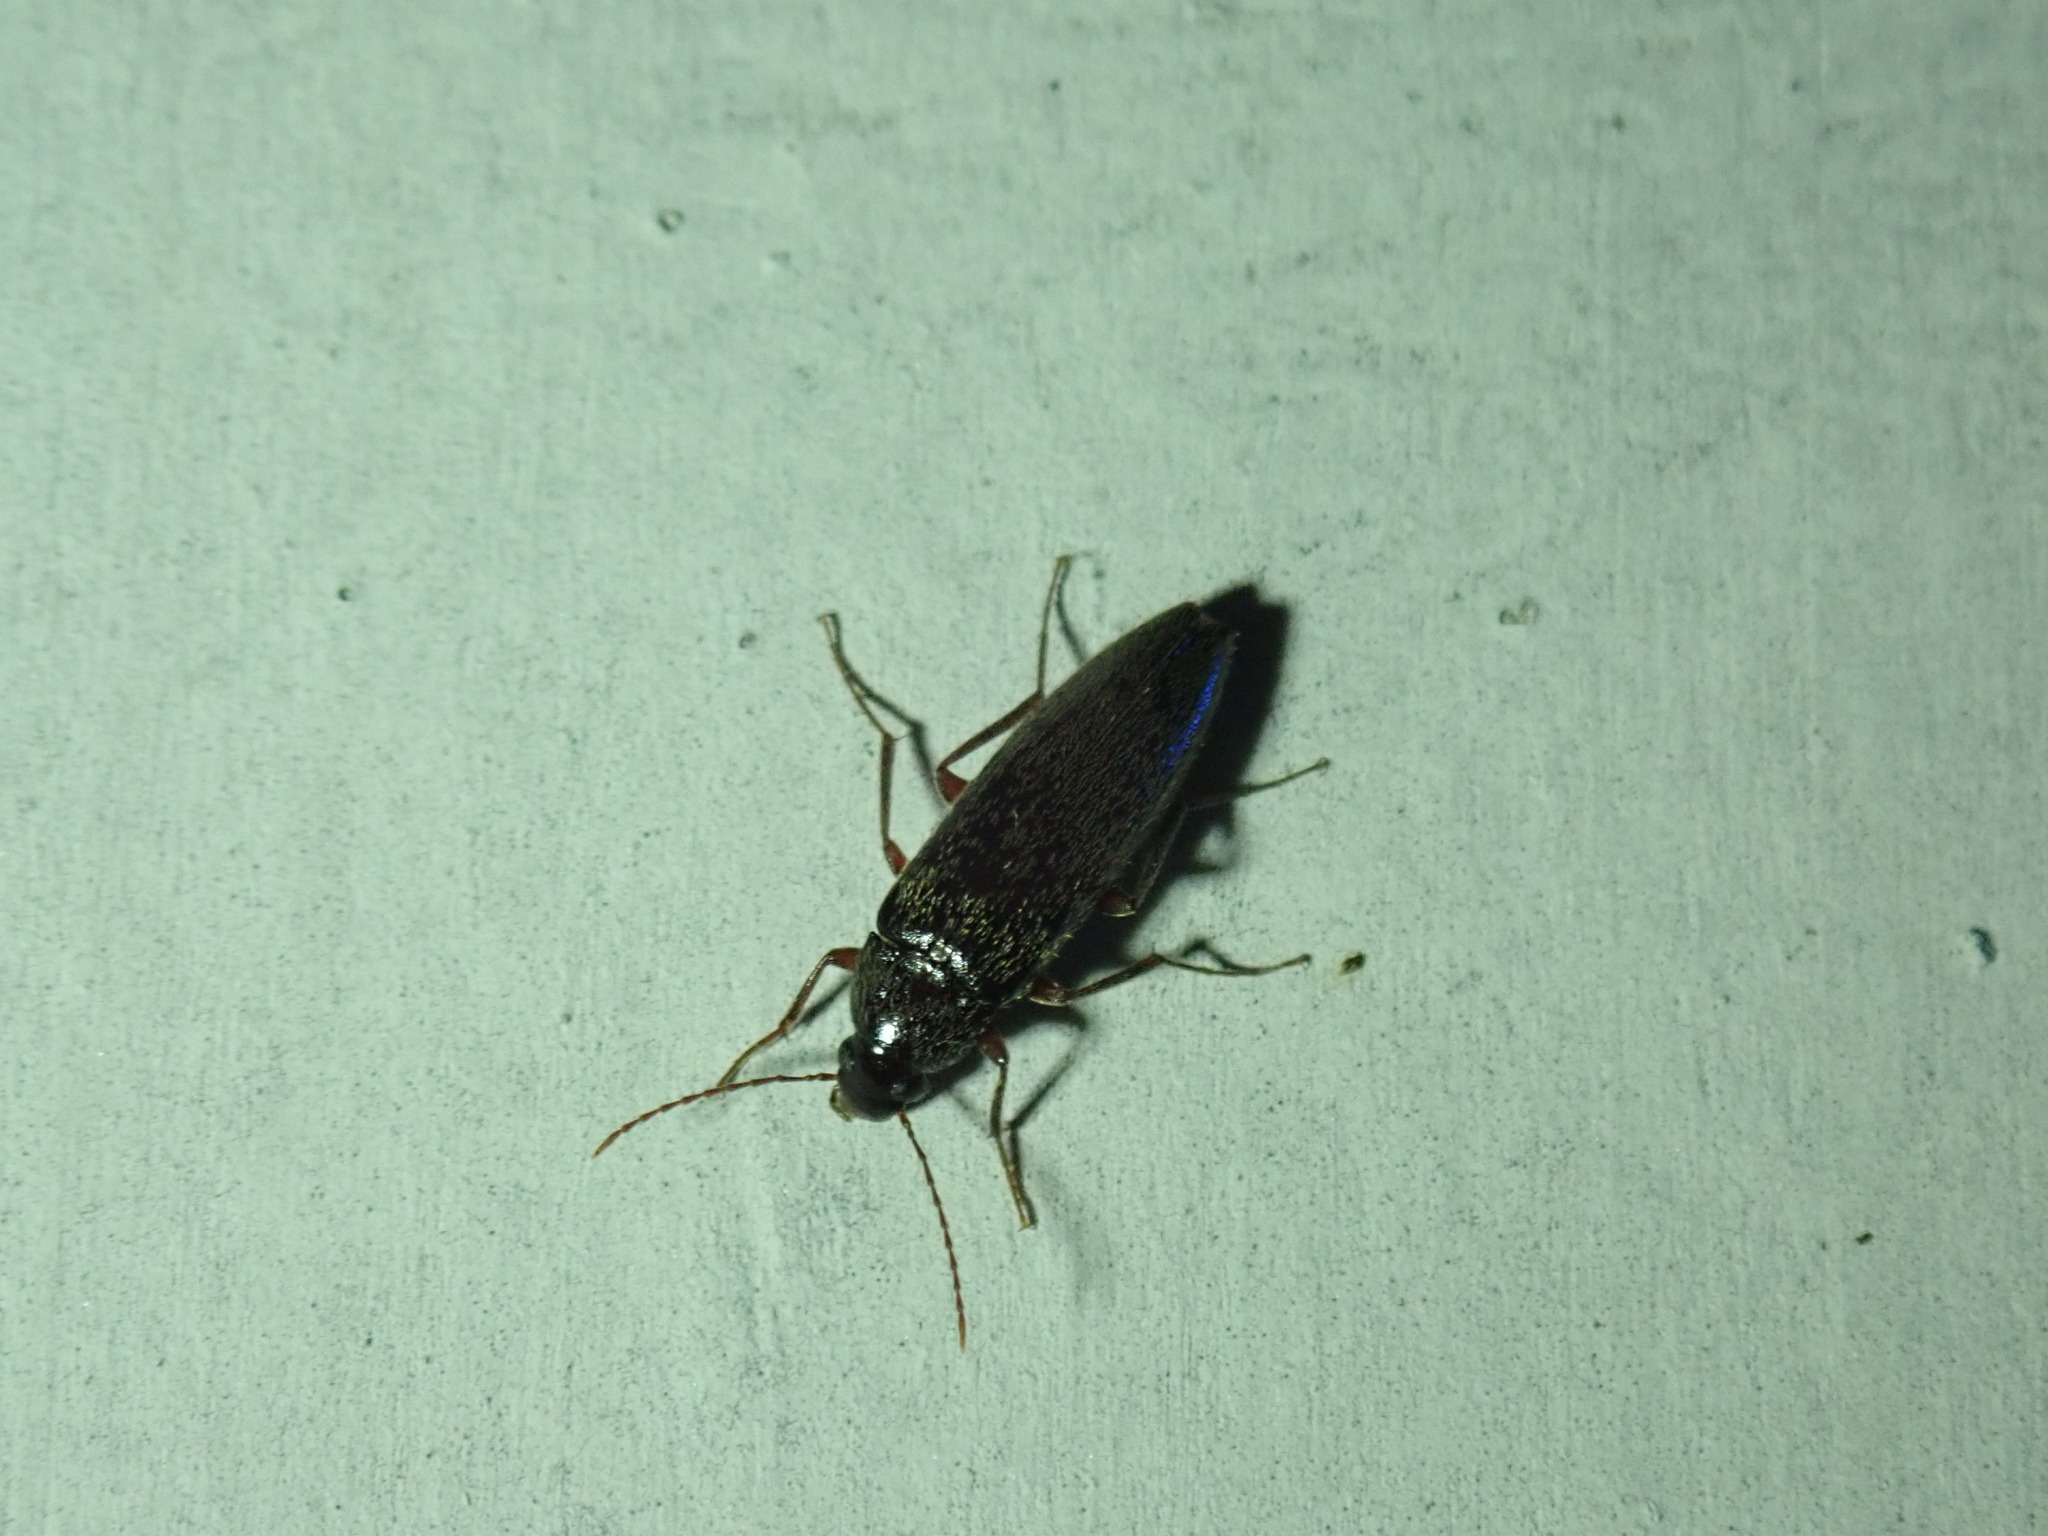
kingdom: Animalia
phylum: Arthropoda
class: Insecta
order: Coleoptera
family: Synchroidae
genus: Synchroa
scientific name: Synchroa punctata
